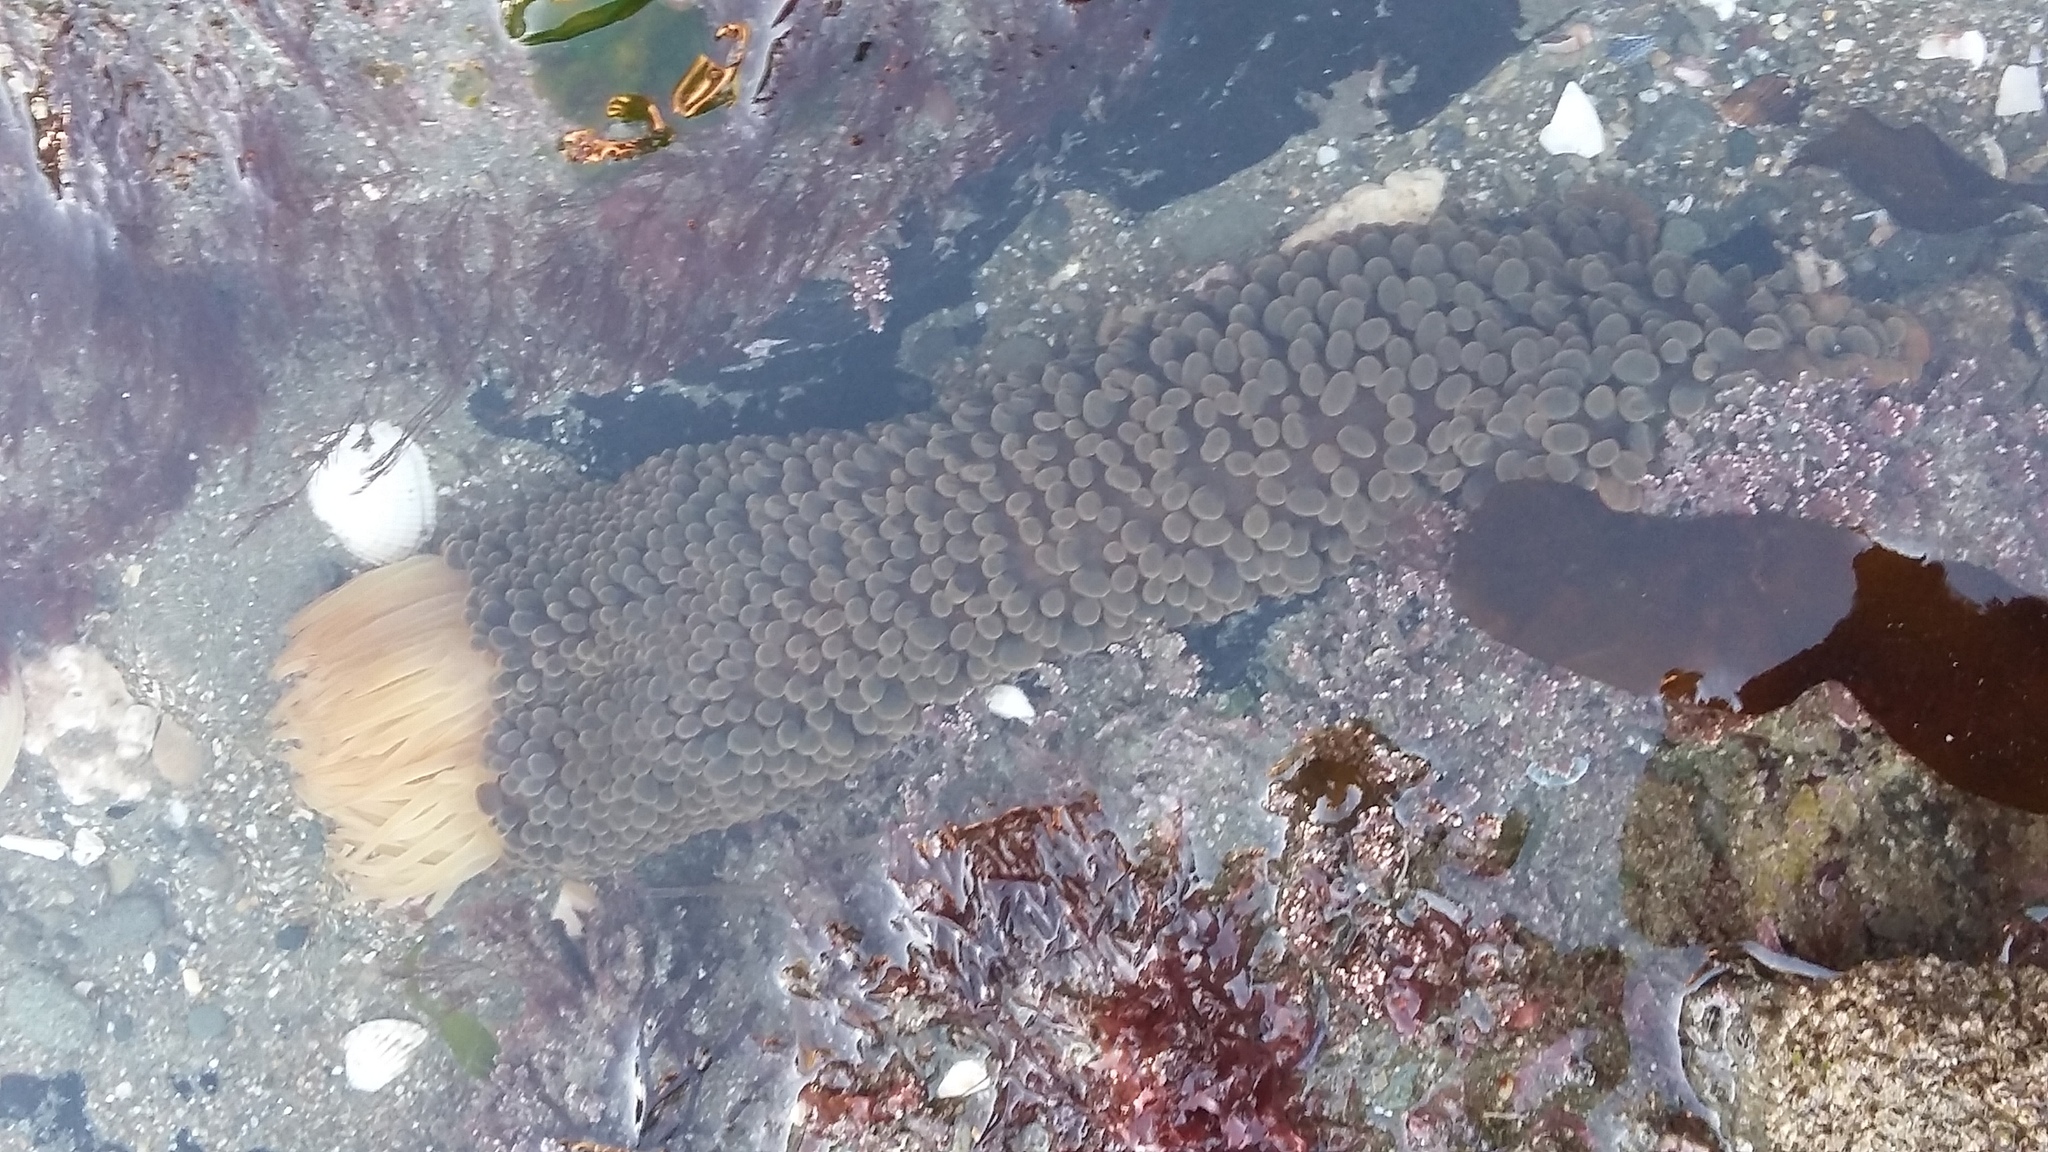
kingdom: Animalia
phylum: Cnidaria
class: Anthozoa
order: Actiniaria
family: Actiniidae
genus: Phlyctenactis
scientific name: Phlyctenactis tuberculosa
